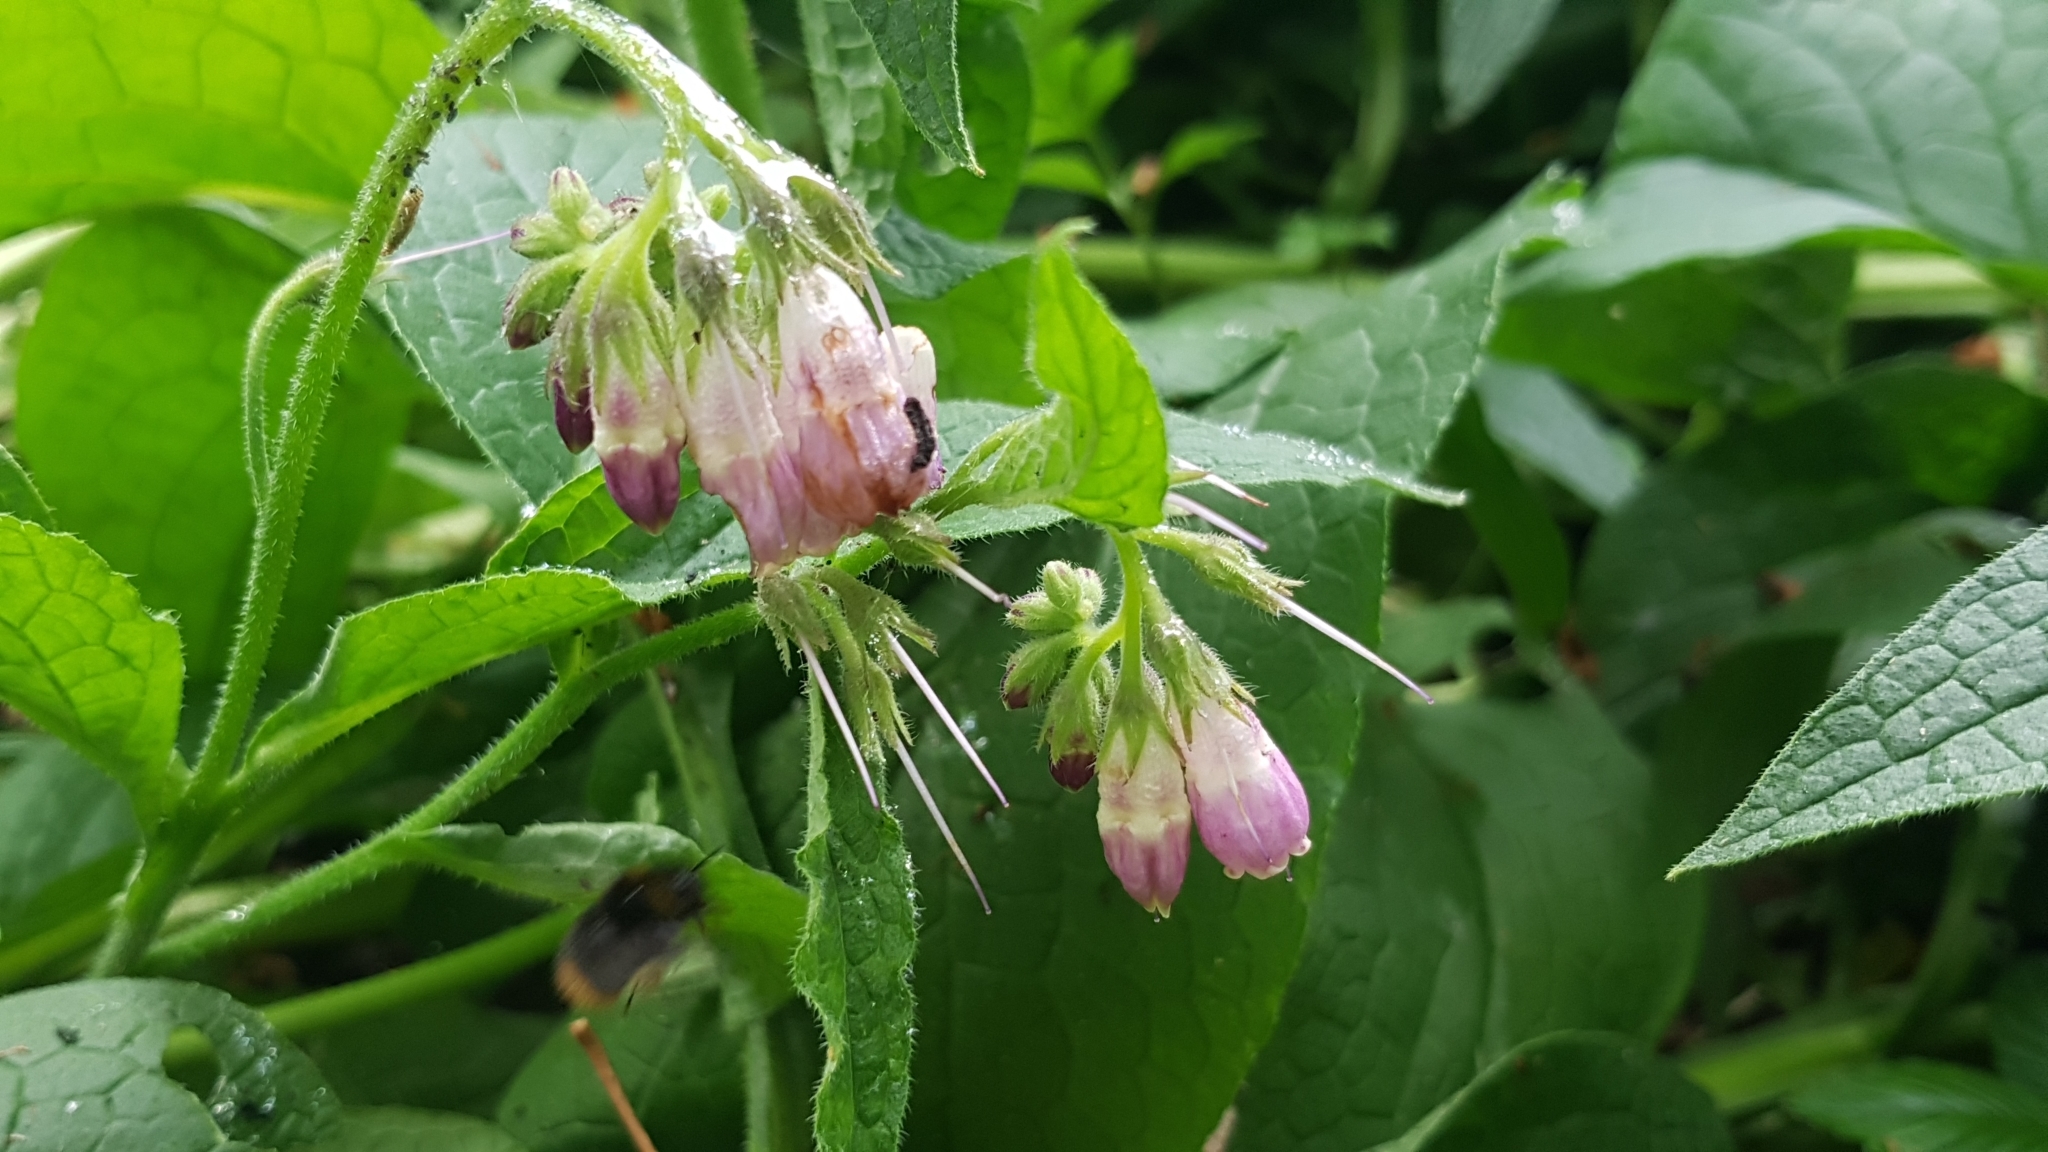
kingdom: Plantae
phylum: Tracheophyta
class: Magnoliopsida
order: Boraginales
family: Boraginaceae
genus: Symphytum
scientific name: Symphytum officinale
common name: Common comfrey
